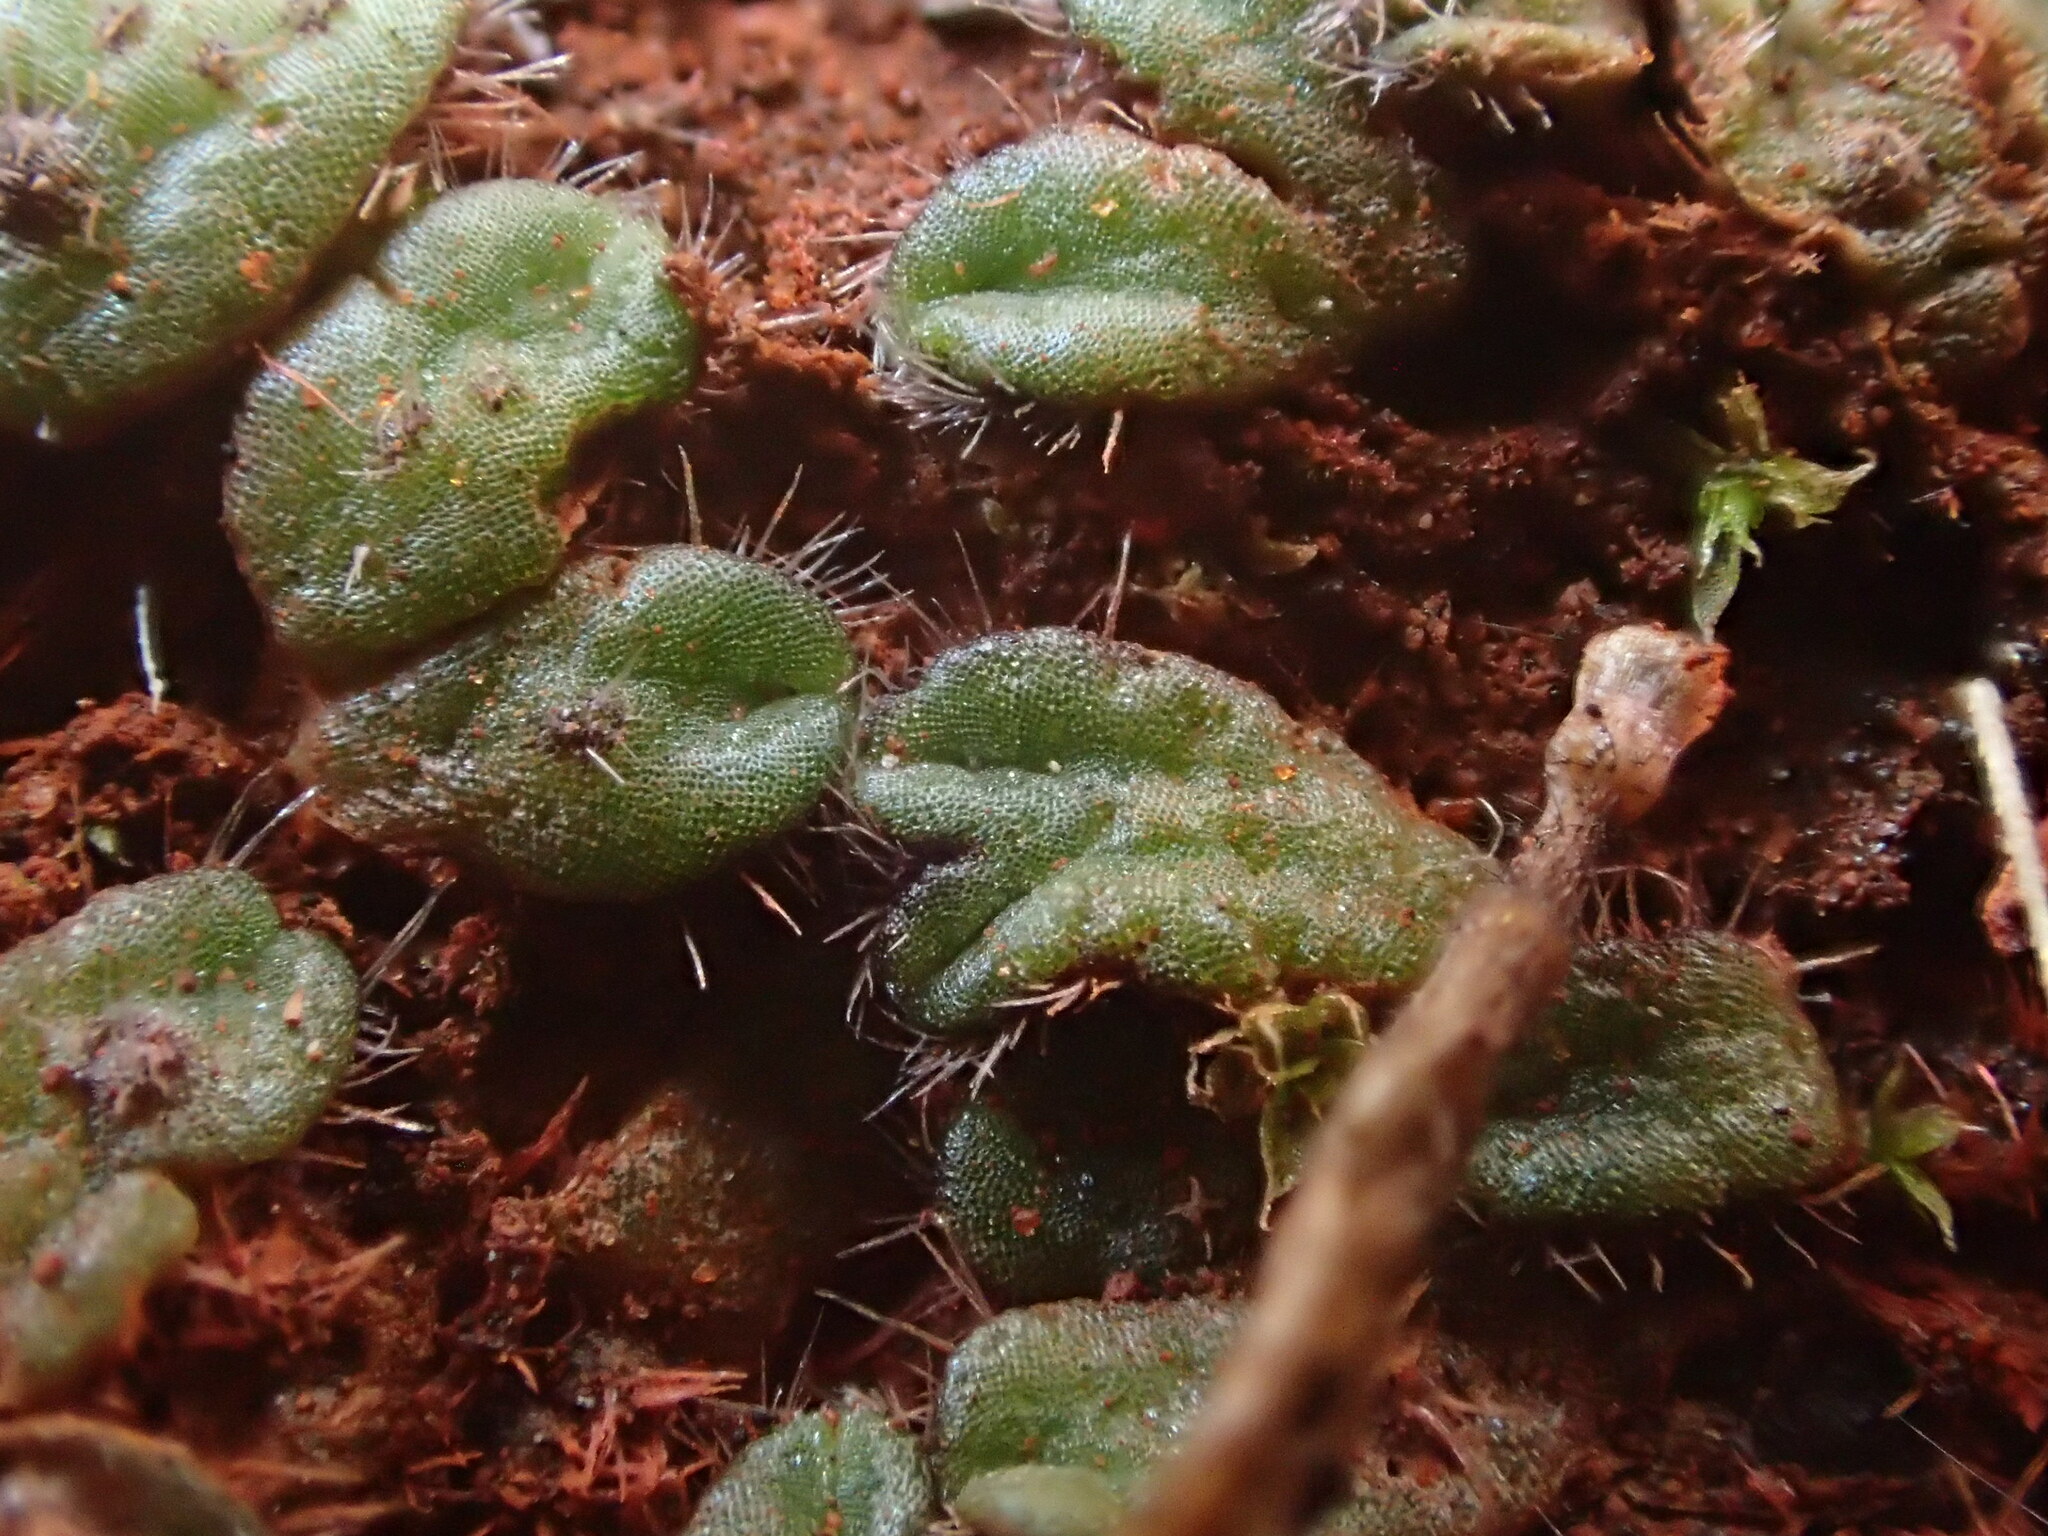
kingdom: Plantae
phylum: Marchantiophyta
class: Marchantiopsida
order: Marchantiales
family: Ricciaceae
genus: Riccia
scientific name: Riccia crinita
